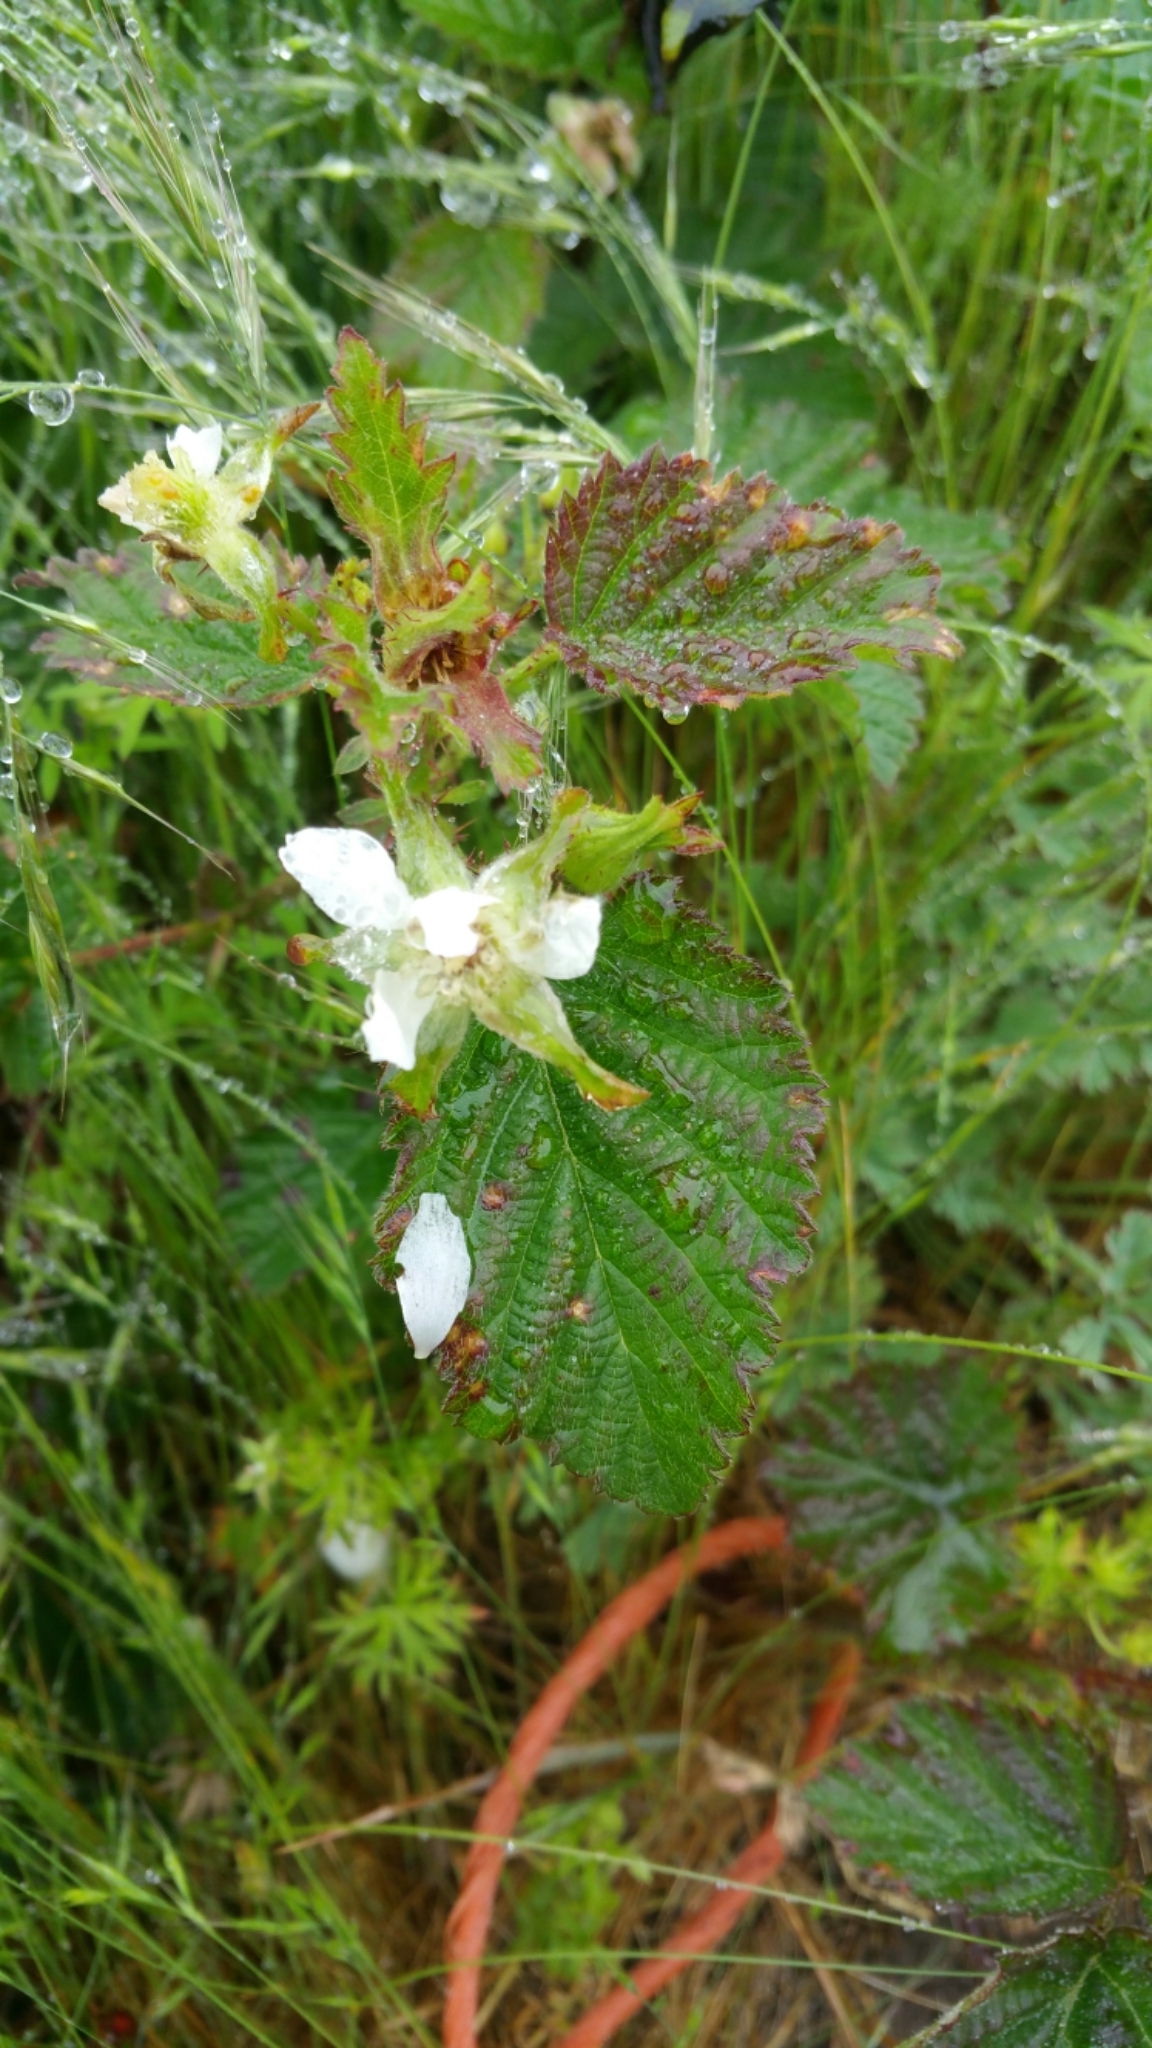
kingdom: Plantae
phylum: Tracheophyta
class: Magnoliopsida
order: Rosales
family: Rosaceae
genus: Rubus
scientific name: Rubus ursinus
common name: Pacific blackberry
